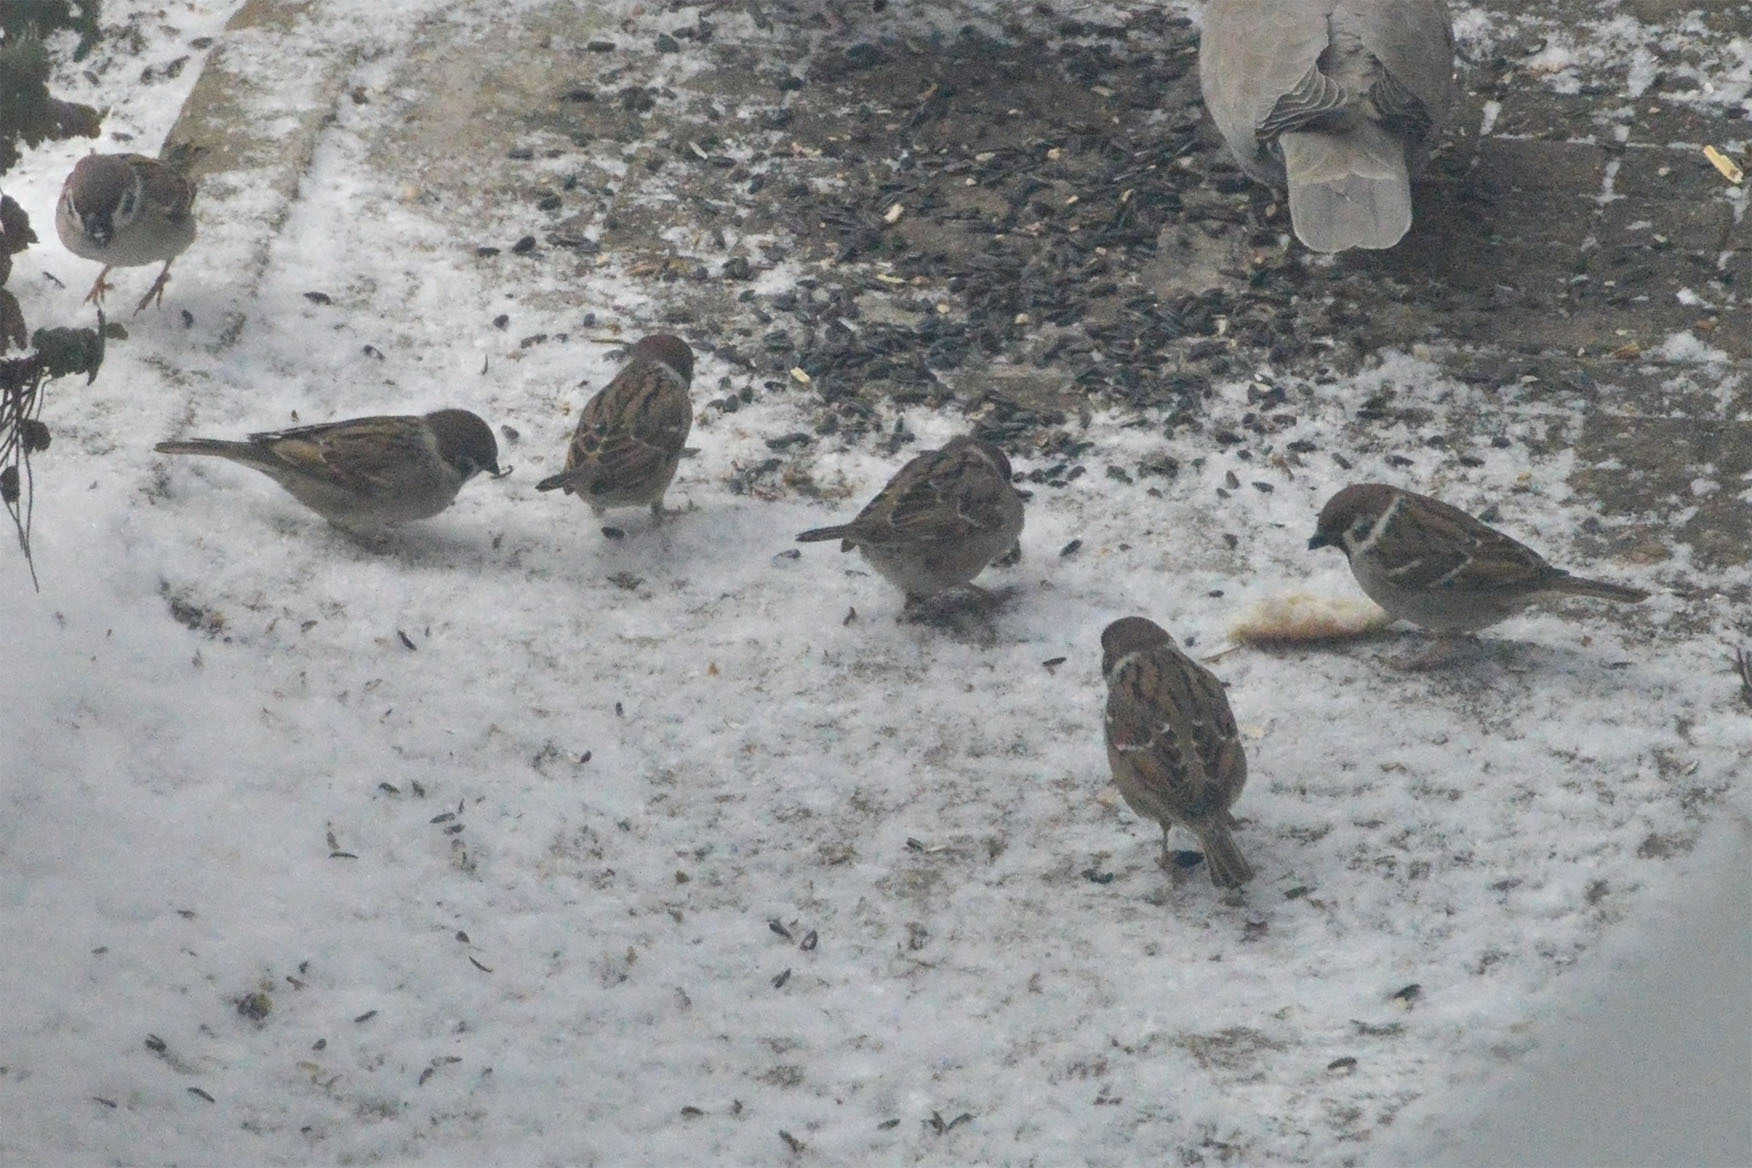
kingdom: Animalia
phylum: Chordata
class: Aves
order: Passeriformes
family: Passeridae
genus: Passer
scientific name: Passer montanus
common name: Eurasian tree sparrow
